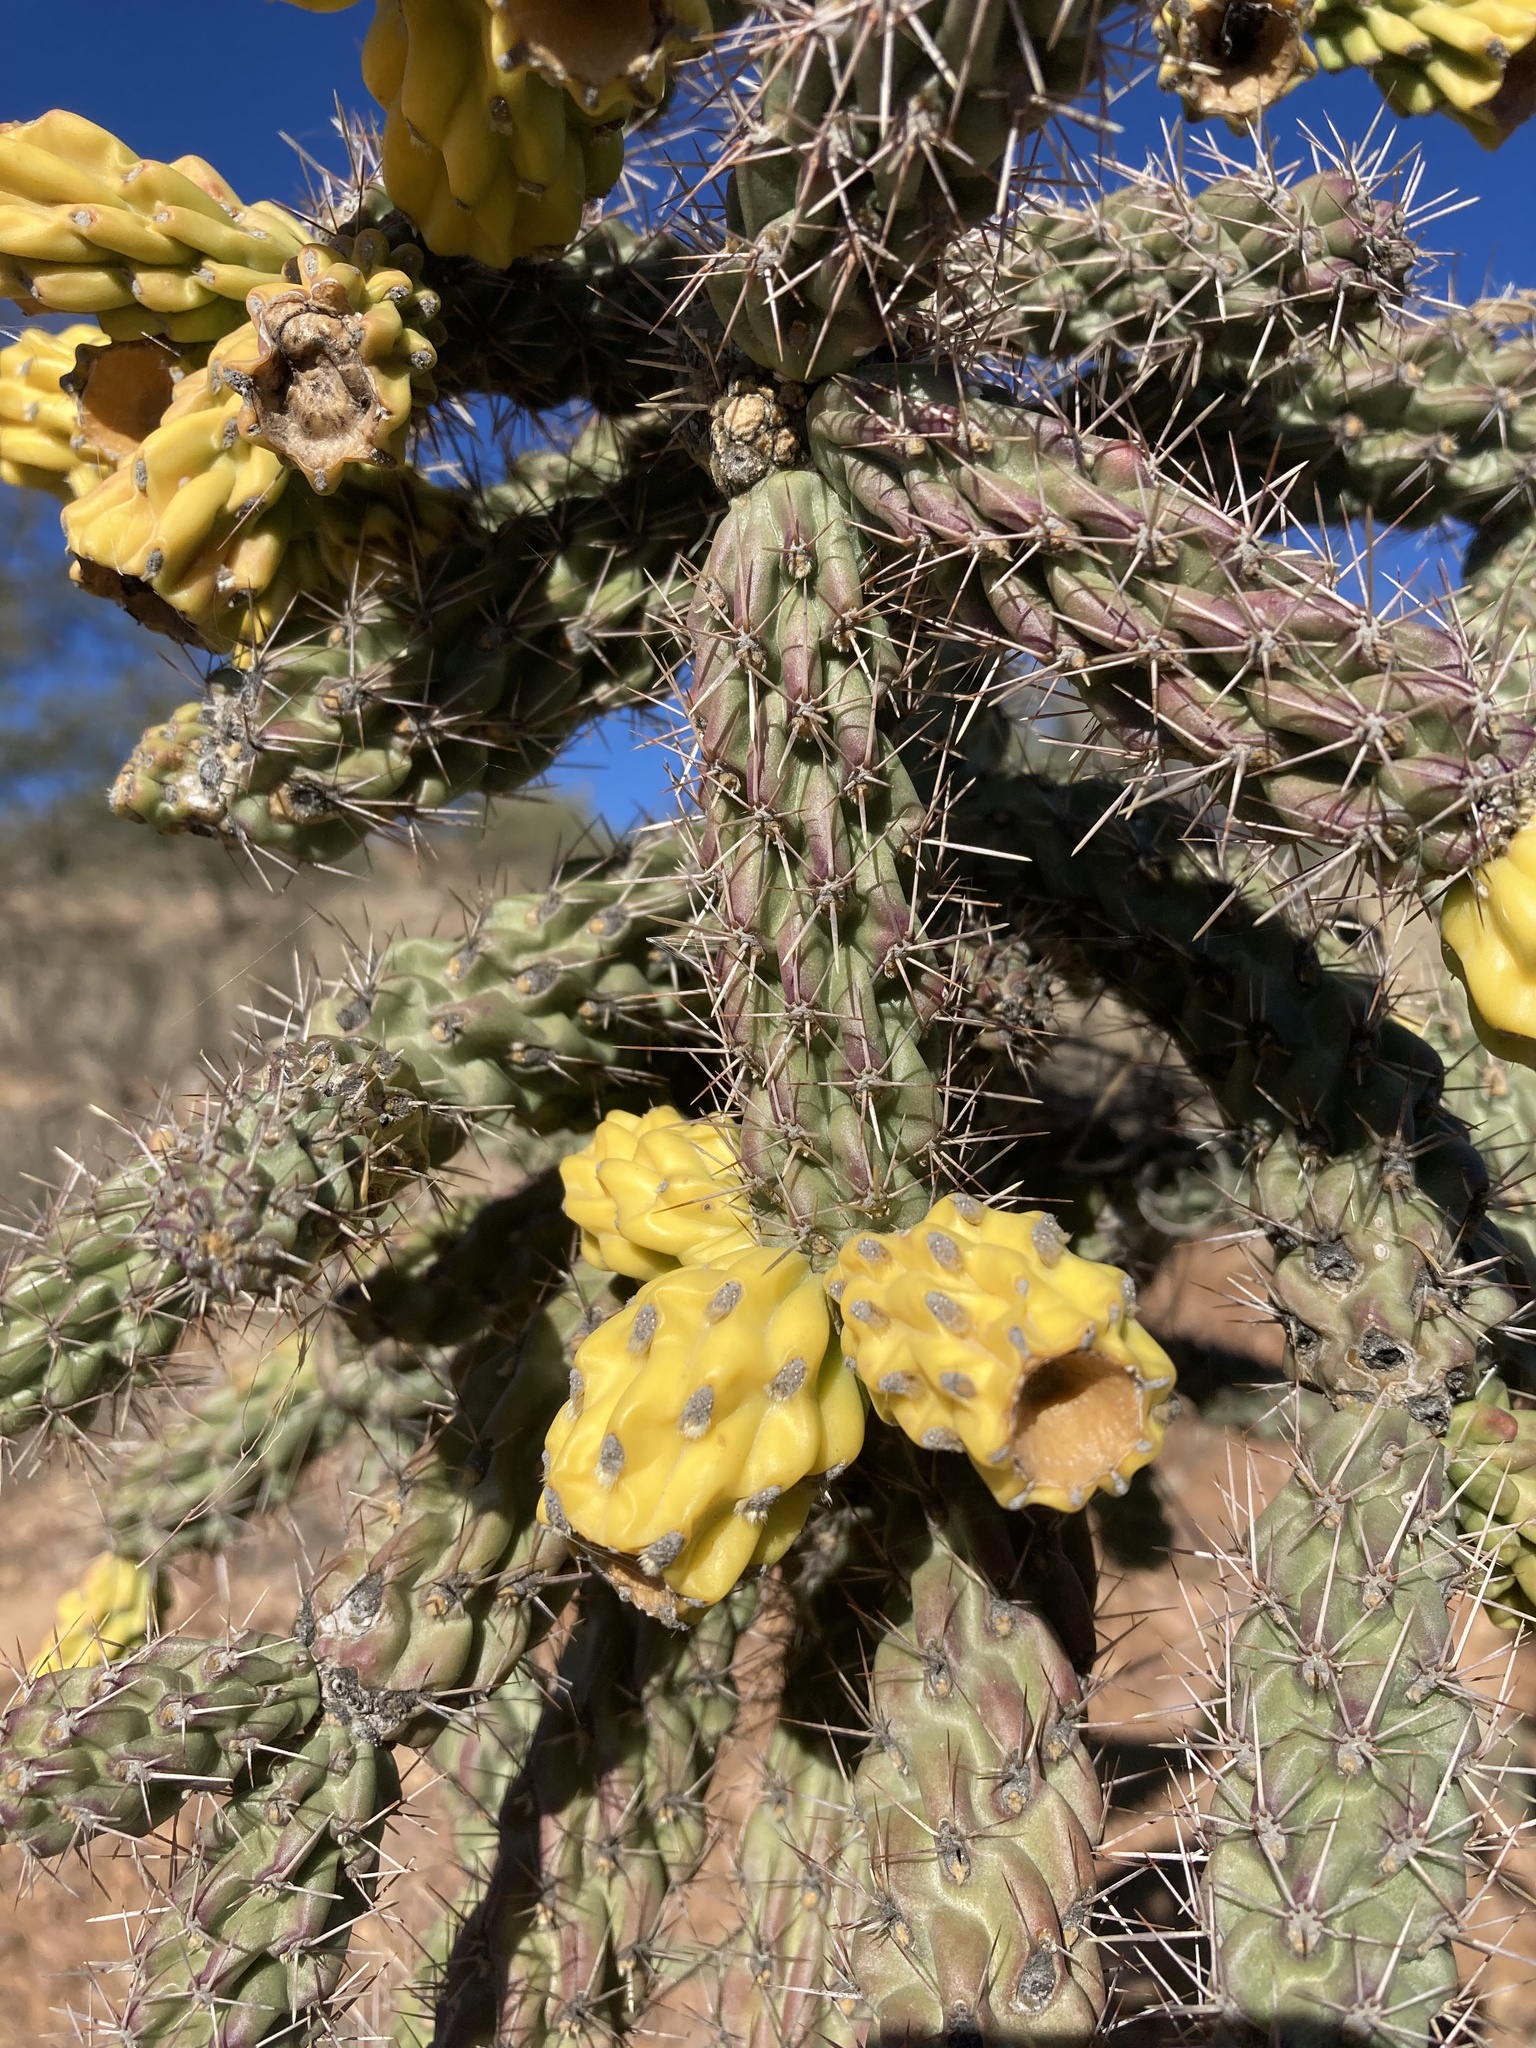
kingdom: Plantae
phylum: Tracheophyta
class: Magnoliopsida
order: Caryophyllales
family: Cactaceae
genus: Cylindropuntia
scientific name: Cylindropuntia imbricata
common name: Candelabrum cactus
